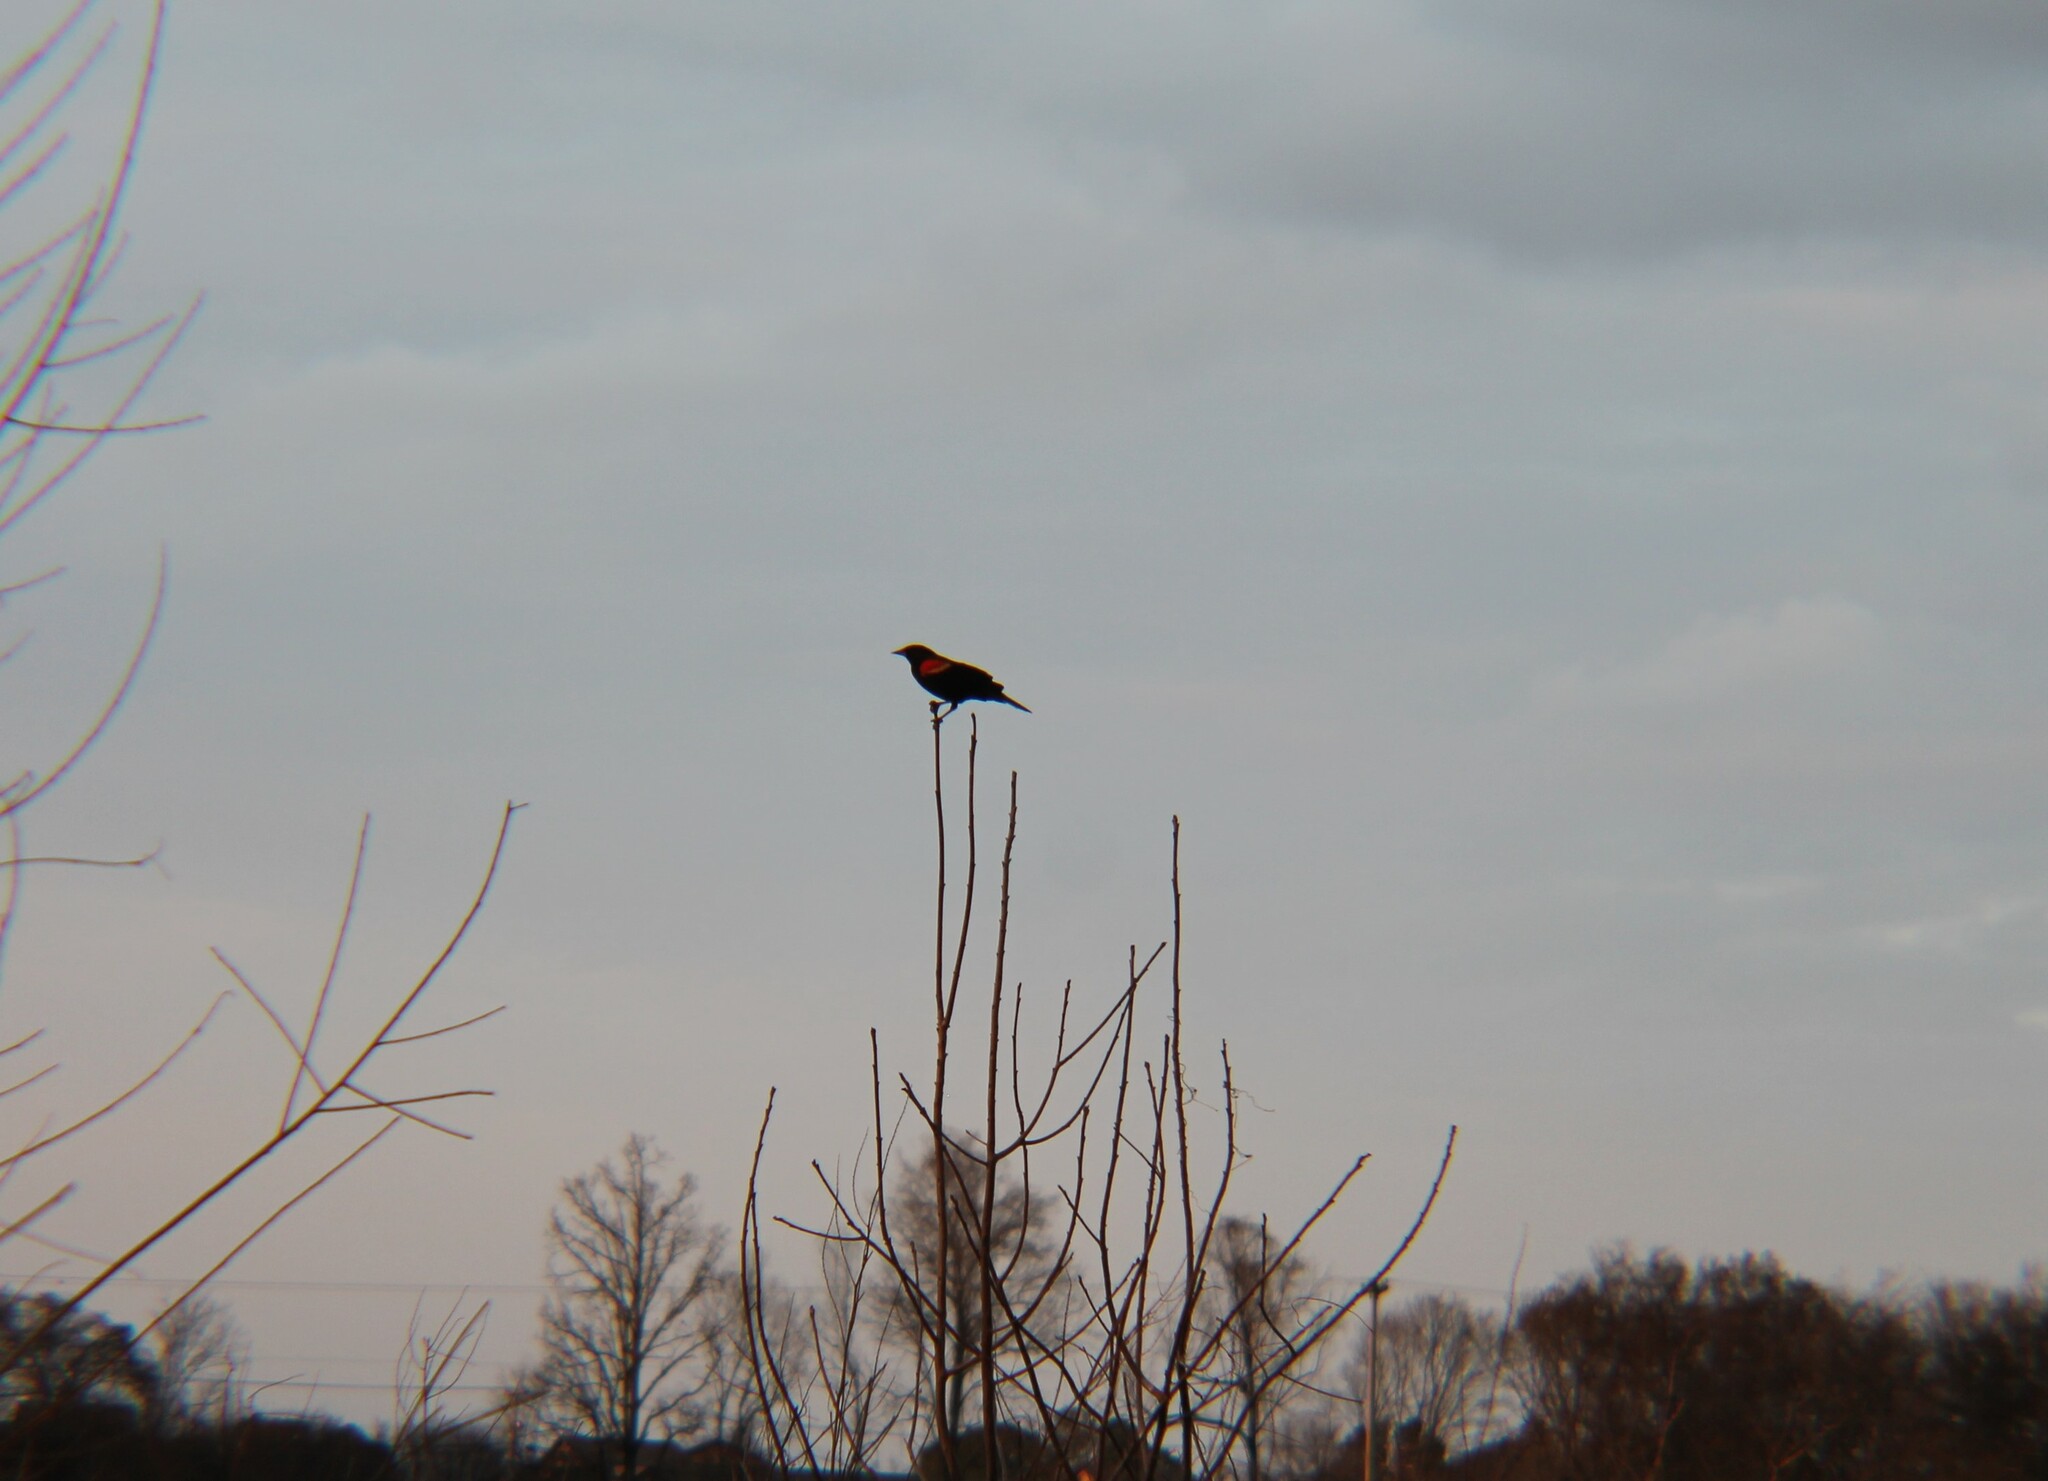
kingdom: Animalia
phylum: Chordata
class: Aves
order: Passeriformes
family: Icteridae
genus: Agelaius
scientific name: Agelaius phoeniceus
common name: Red-winged blackbird
